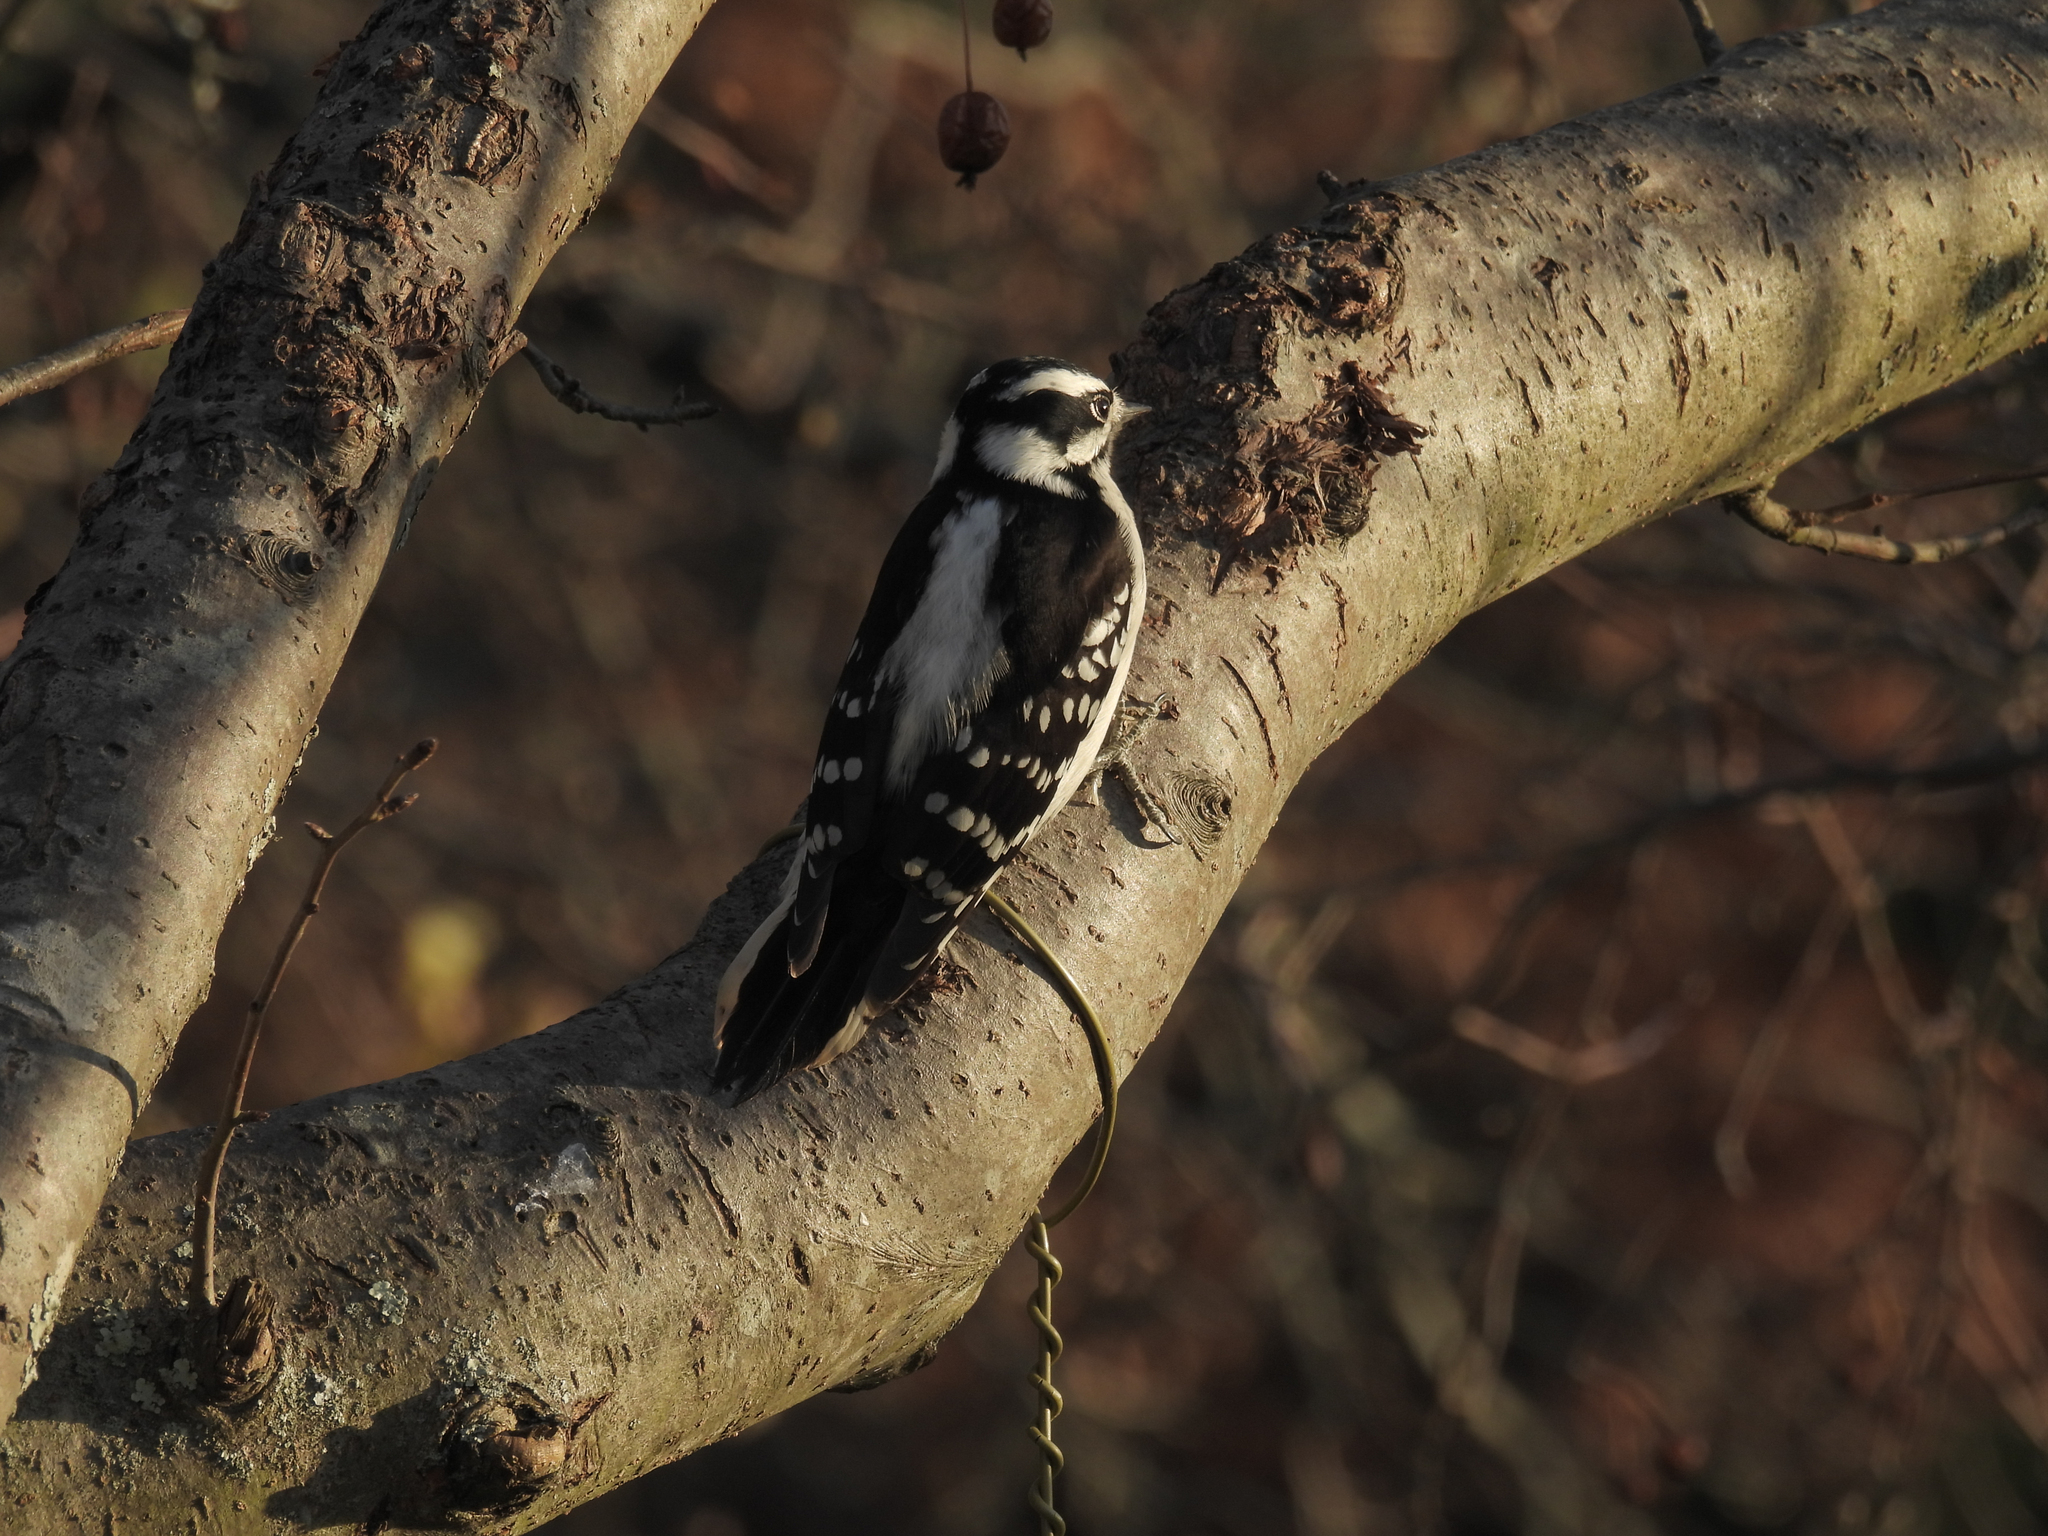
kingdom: Animalia
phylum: Chordata
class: Aves
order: Piciformes
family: Picidae
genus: Dryobates
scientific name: Dryobates pubescens
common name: Downy woodpecker
